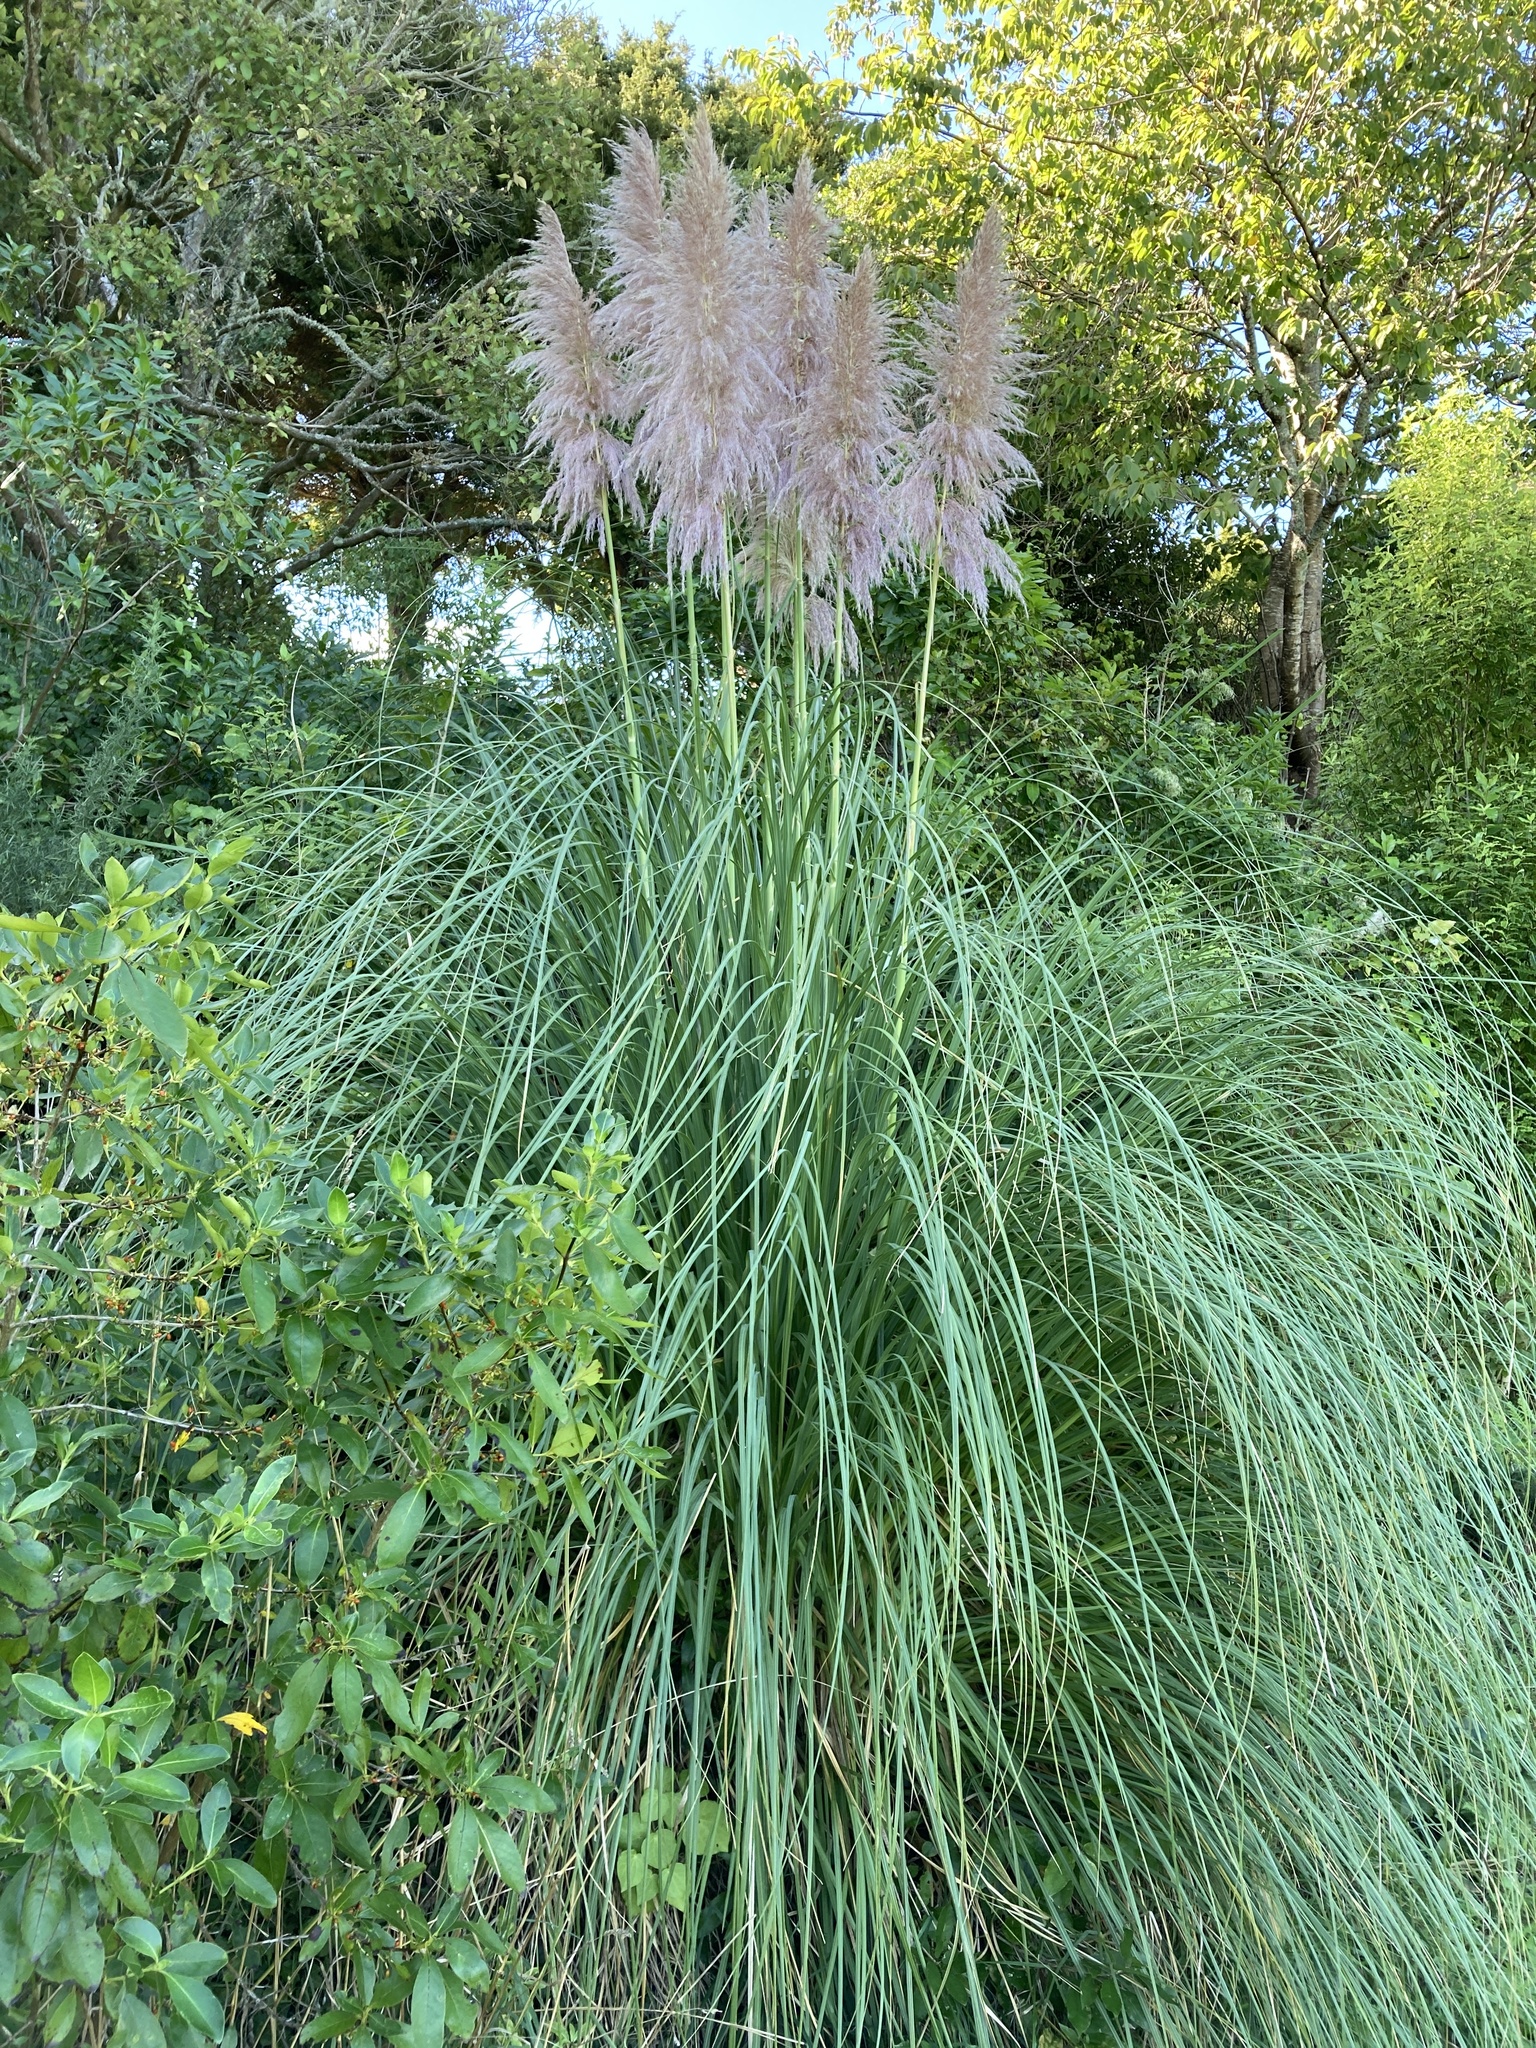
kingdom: Plantae
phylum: Tracheophyta
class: Liliopsida
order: Poales
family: Poaceae
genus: Cortaderia
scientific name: Cortaderia jubata
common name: Purple pampas grass
